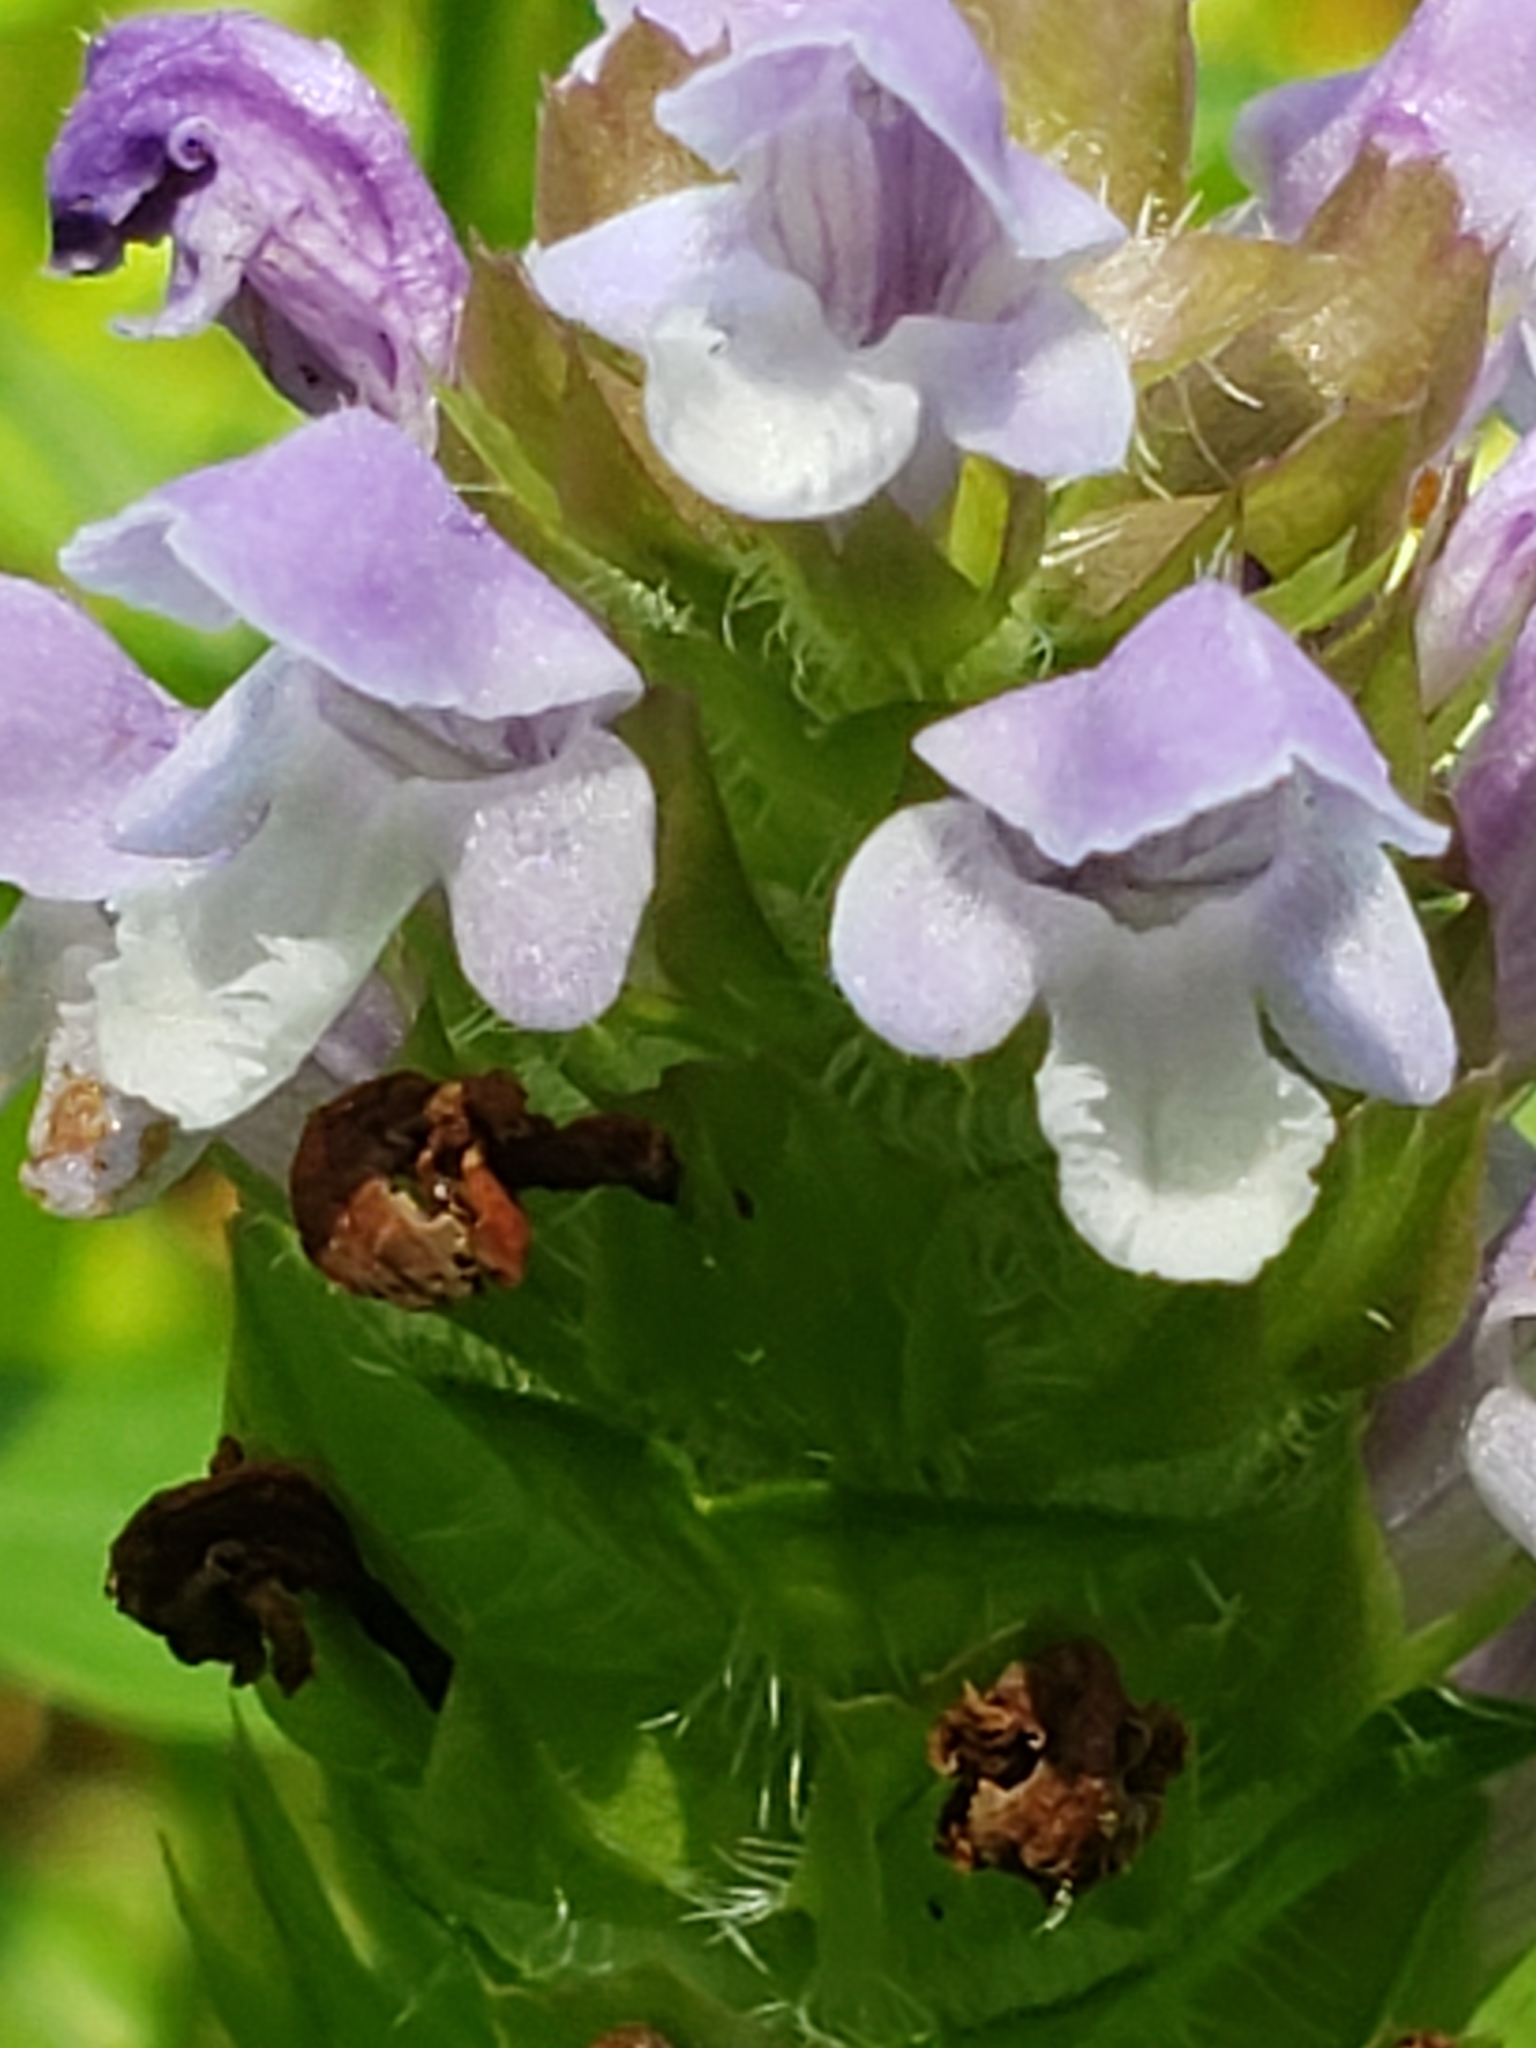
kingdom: Plantae
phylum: Tracheophyta
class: Magnoliopsida
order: Lamiales
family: Lamiaceae
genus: Prunella
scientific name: Prunella vulgaris
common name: Heal-all
